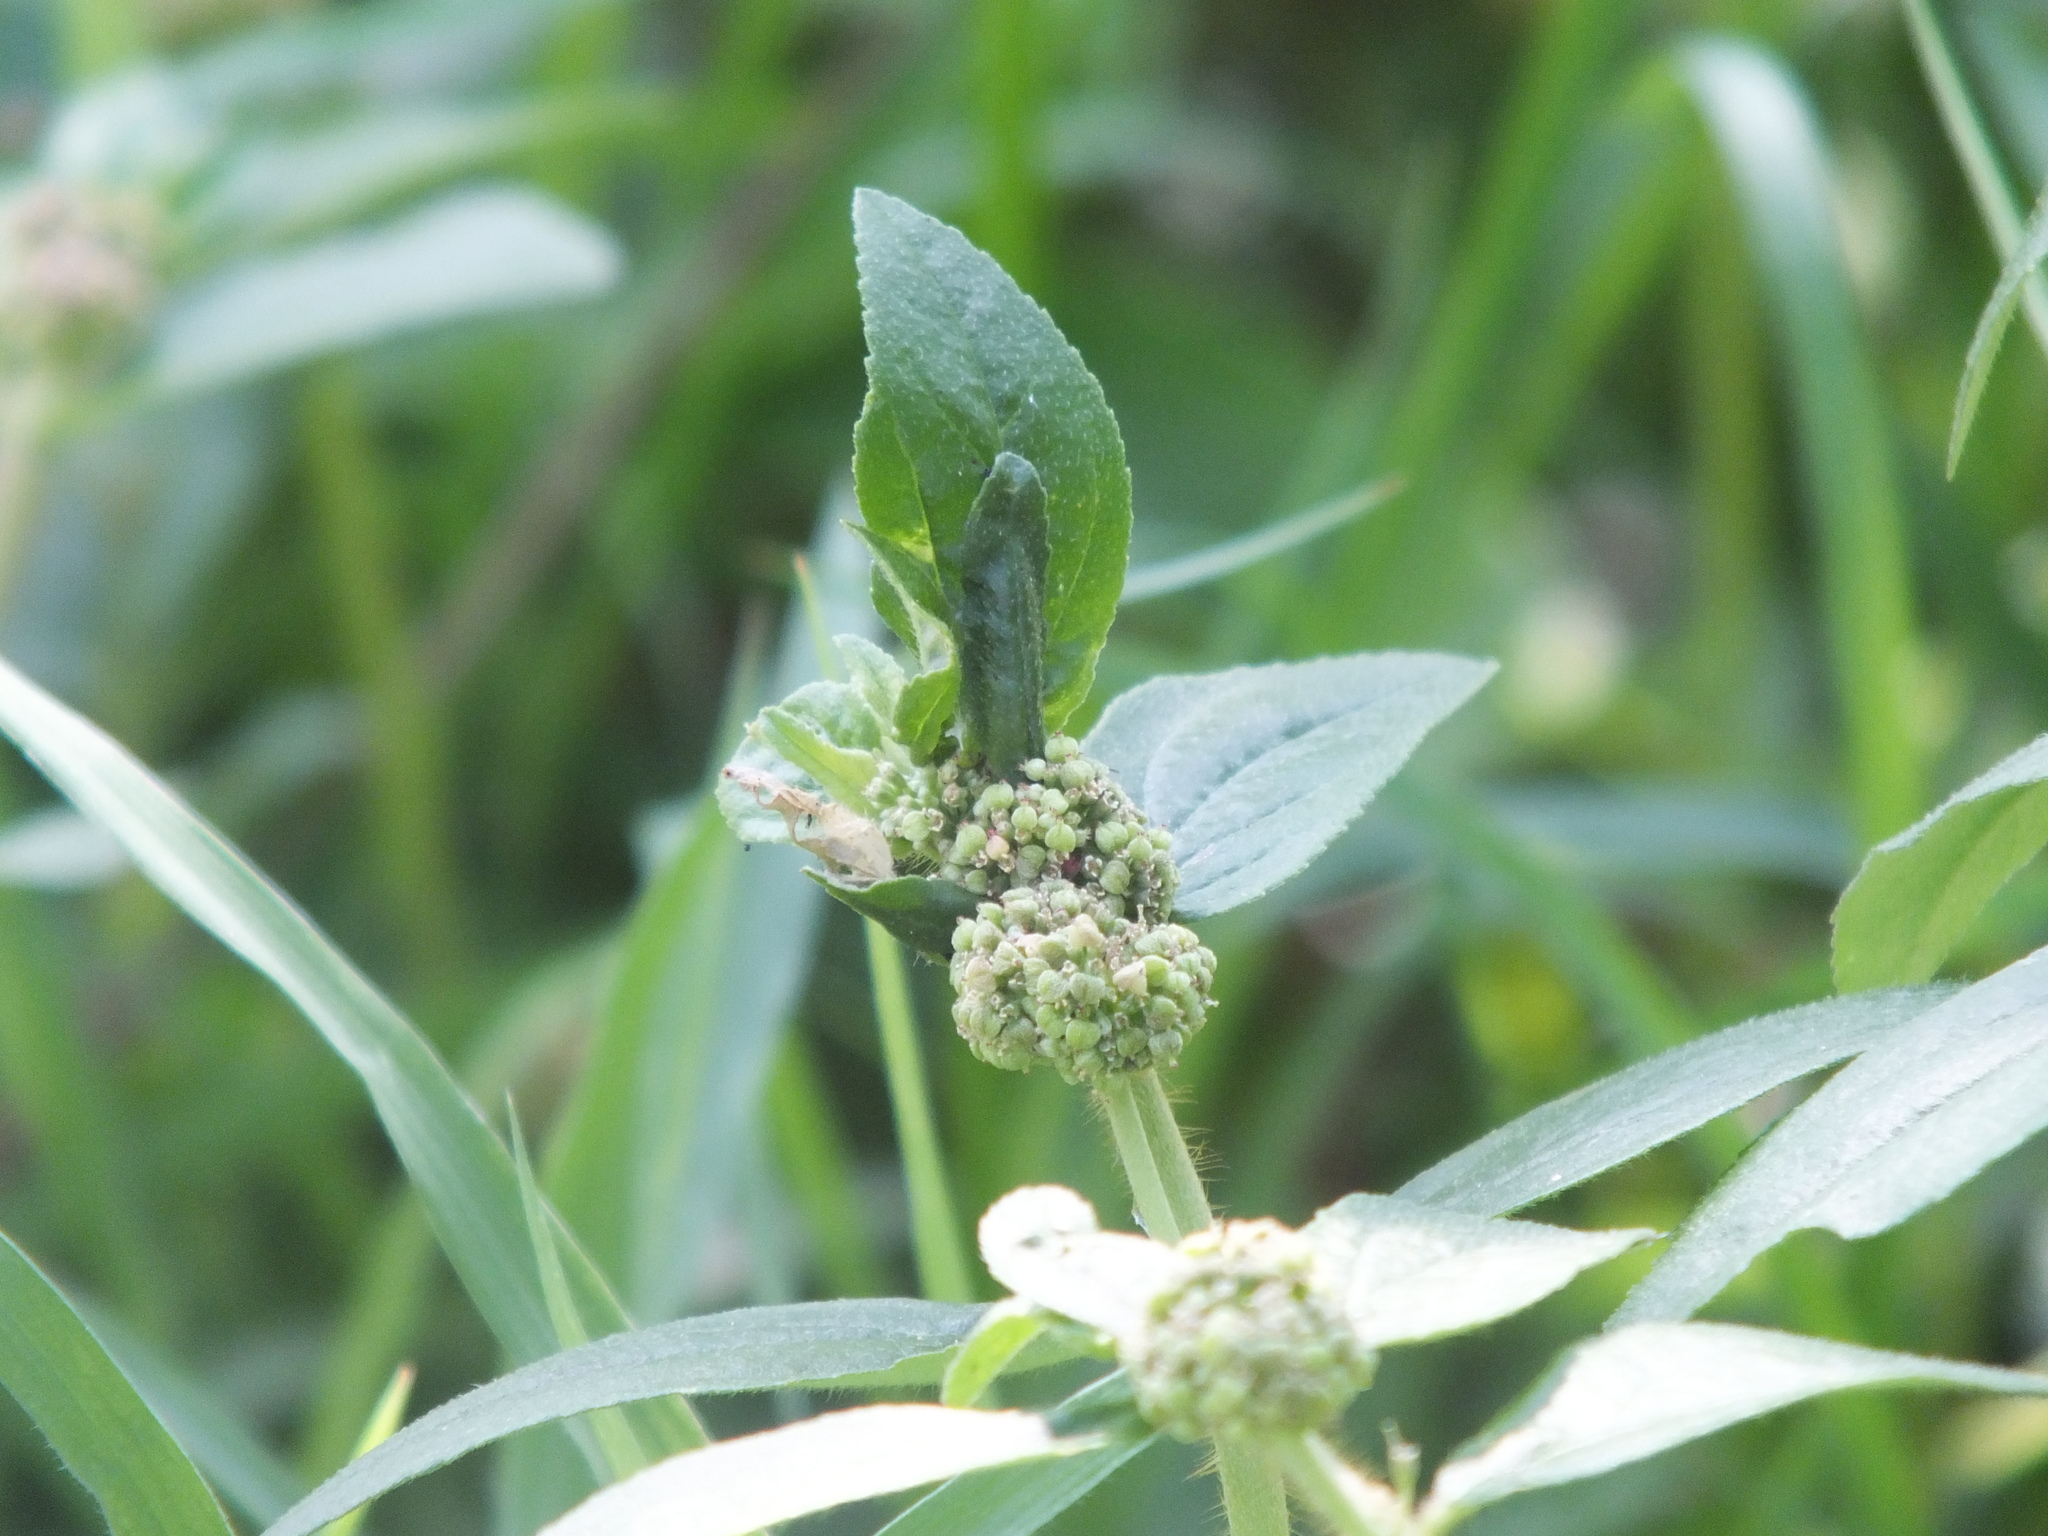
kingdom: Plantae
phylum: Tracheophyta
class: Magnoliopsida
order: Malpighiales
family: Euphorbiaceae
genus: Euphorbia
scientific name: Euphorbia hirta
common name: Pillpod sandmat
